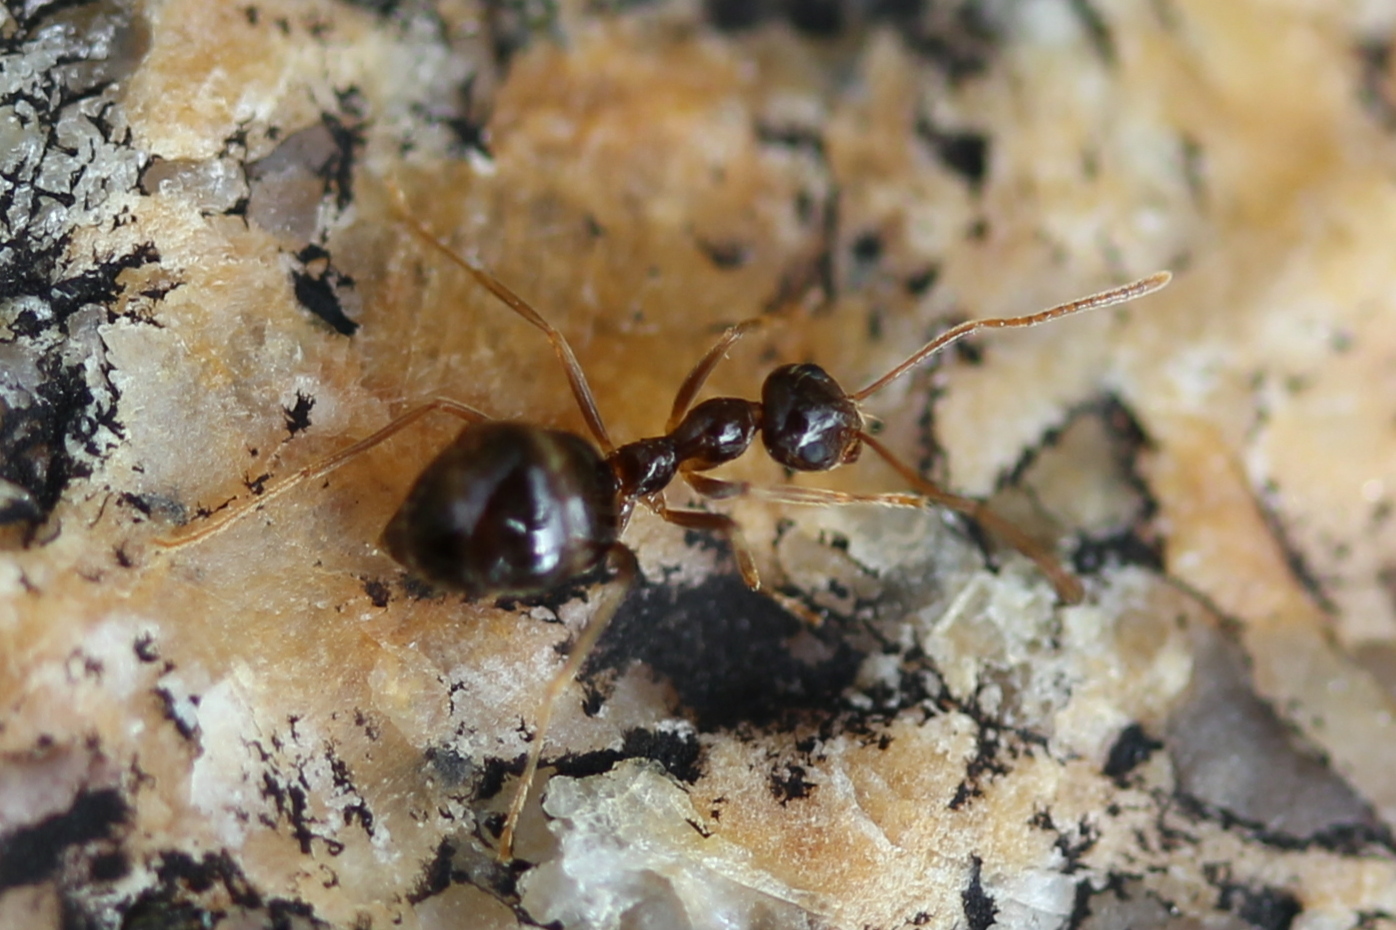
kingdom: Animalia
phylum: Arthropoda
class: Insecta
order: Hymenoptera
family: Formicidae
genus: Prenolepis
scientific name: Prenolepis imparis
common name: Small honey ant
